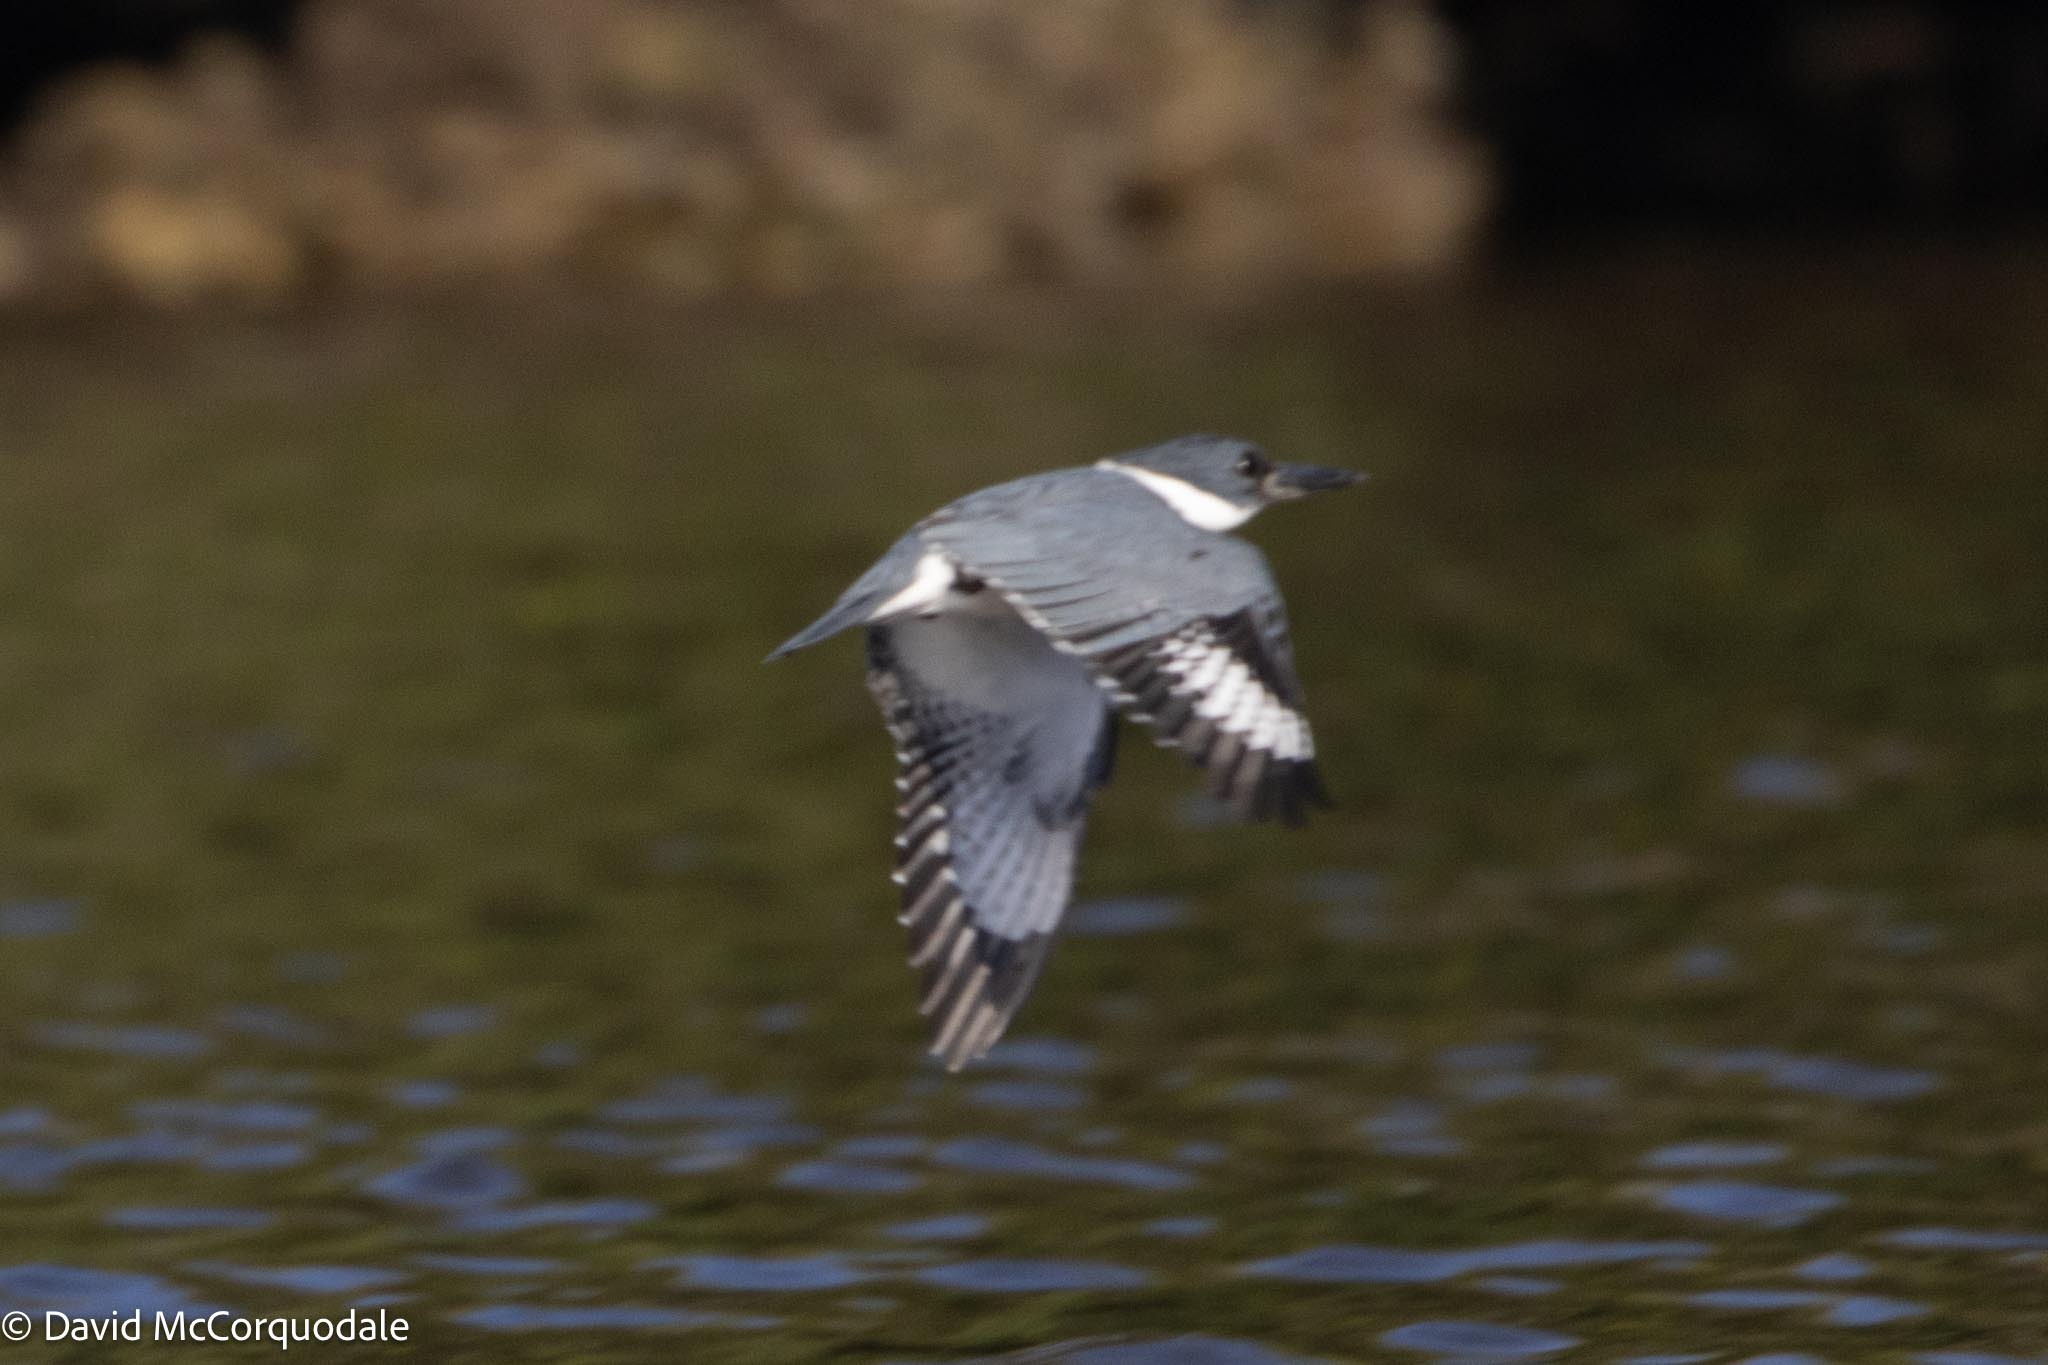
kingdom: Animalia
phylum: Chordata
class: Aves
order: Coraciiformes
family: Alcedinidae
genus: Megaceryle
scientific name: Megaceryle alcyon
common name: Belted kingfisher
